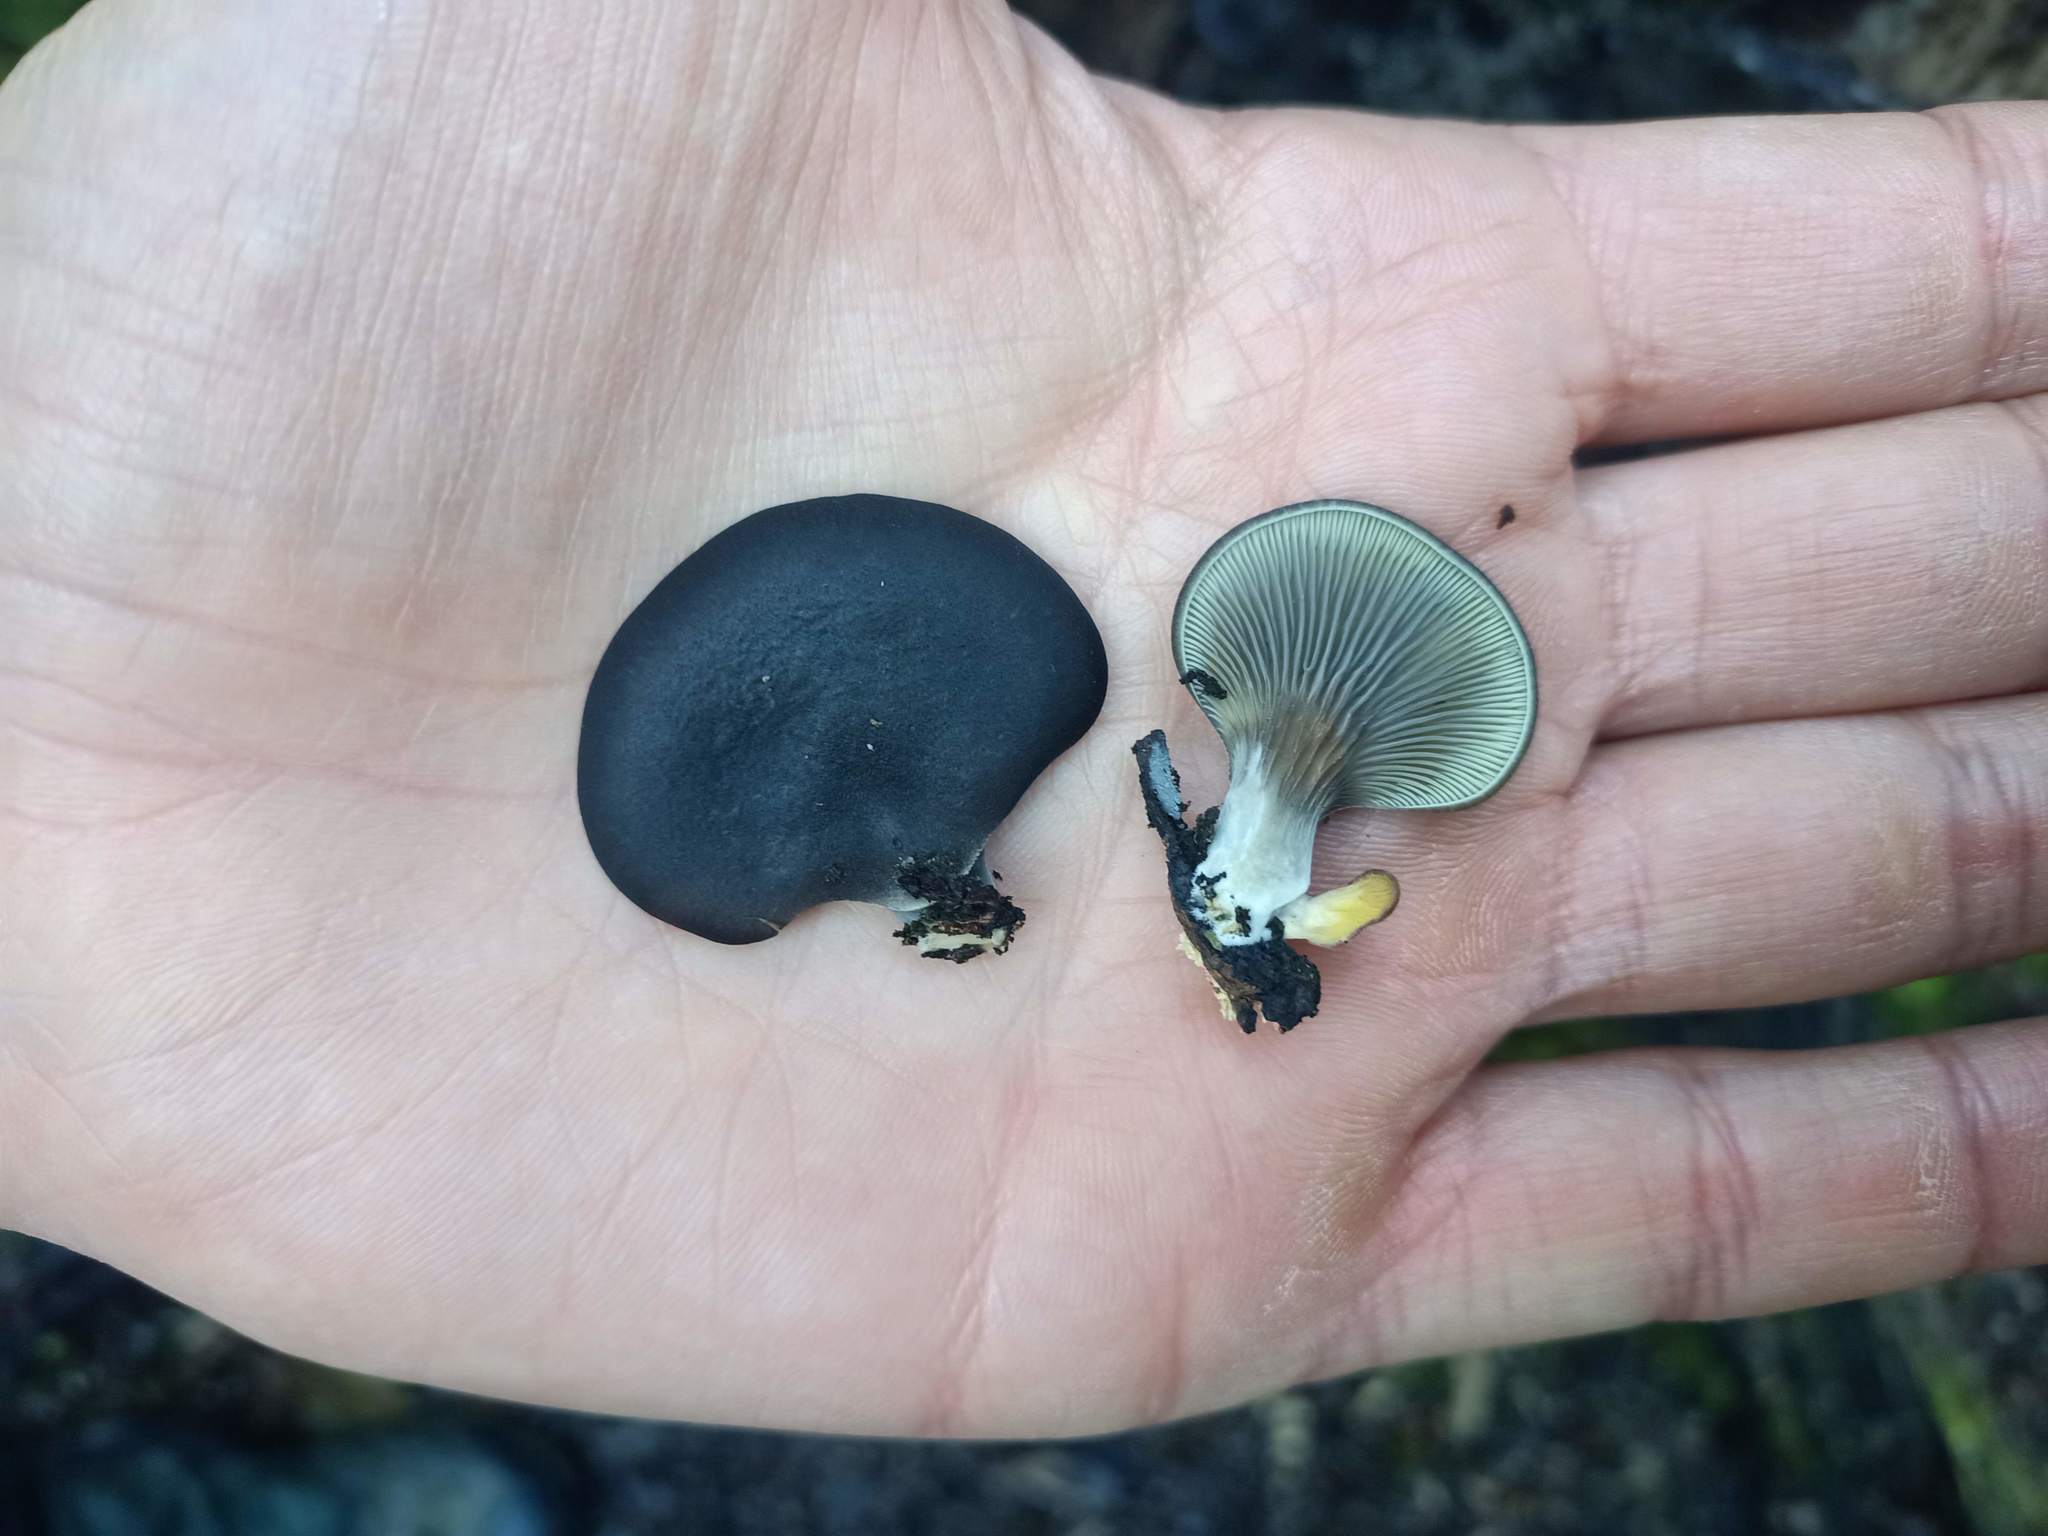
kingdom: Fungi
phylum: Basidiomycota
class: Agaricomycetes
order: Agaricales
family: Pleurotaceae
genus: Pleurotus
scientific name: Pleurotus purpureo-olivaceus
